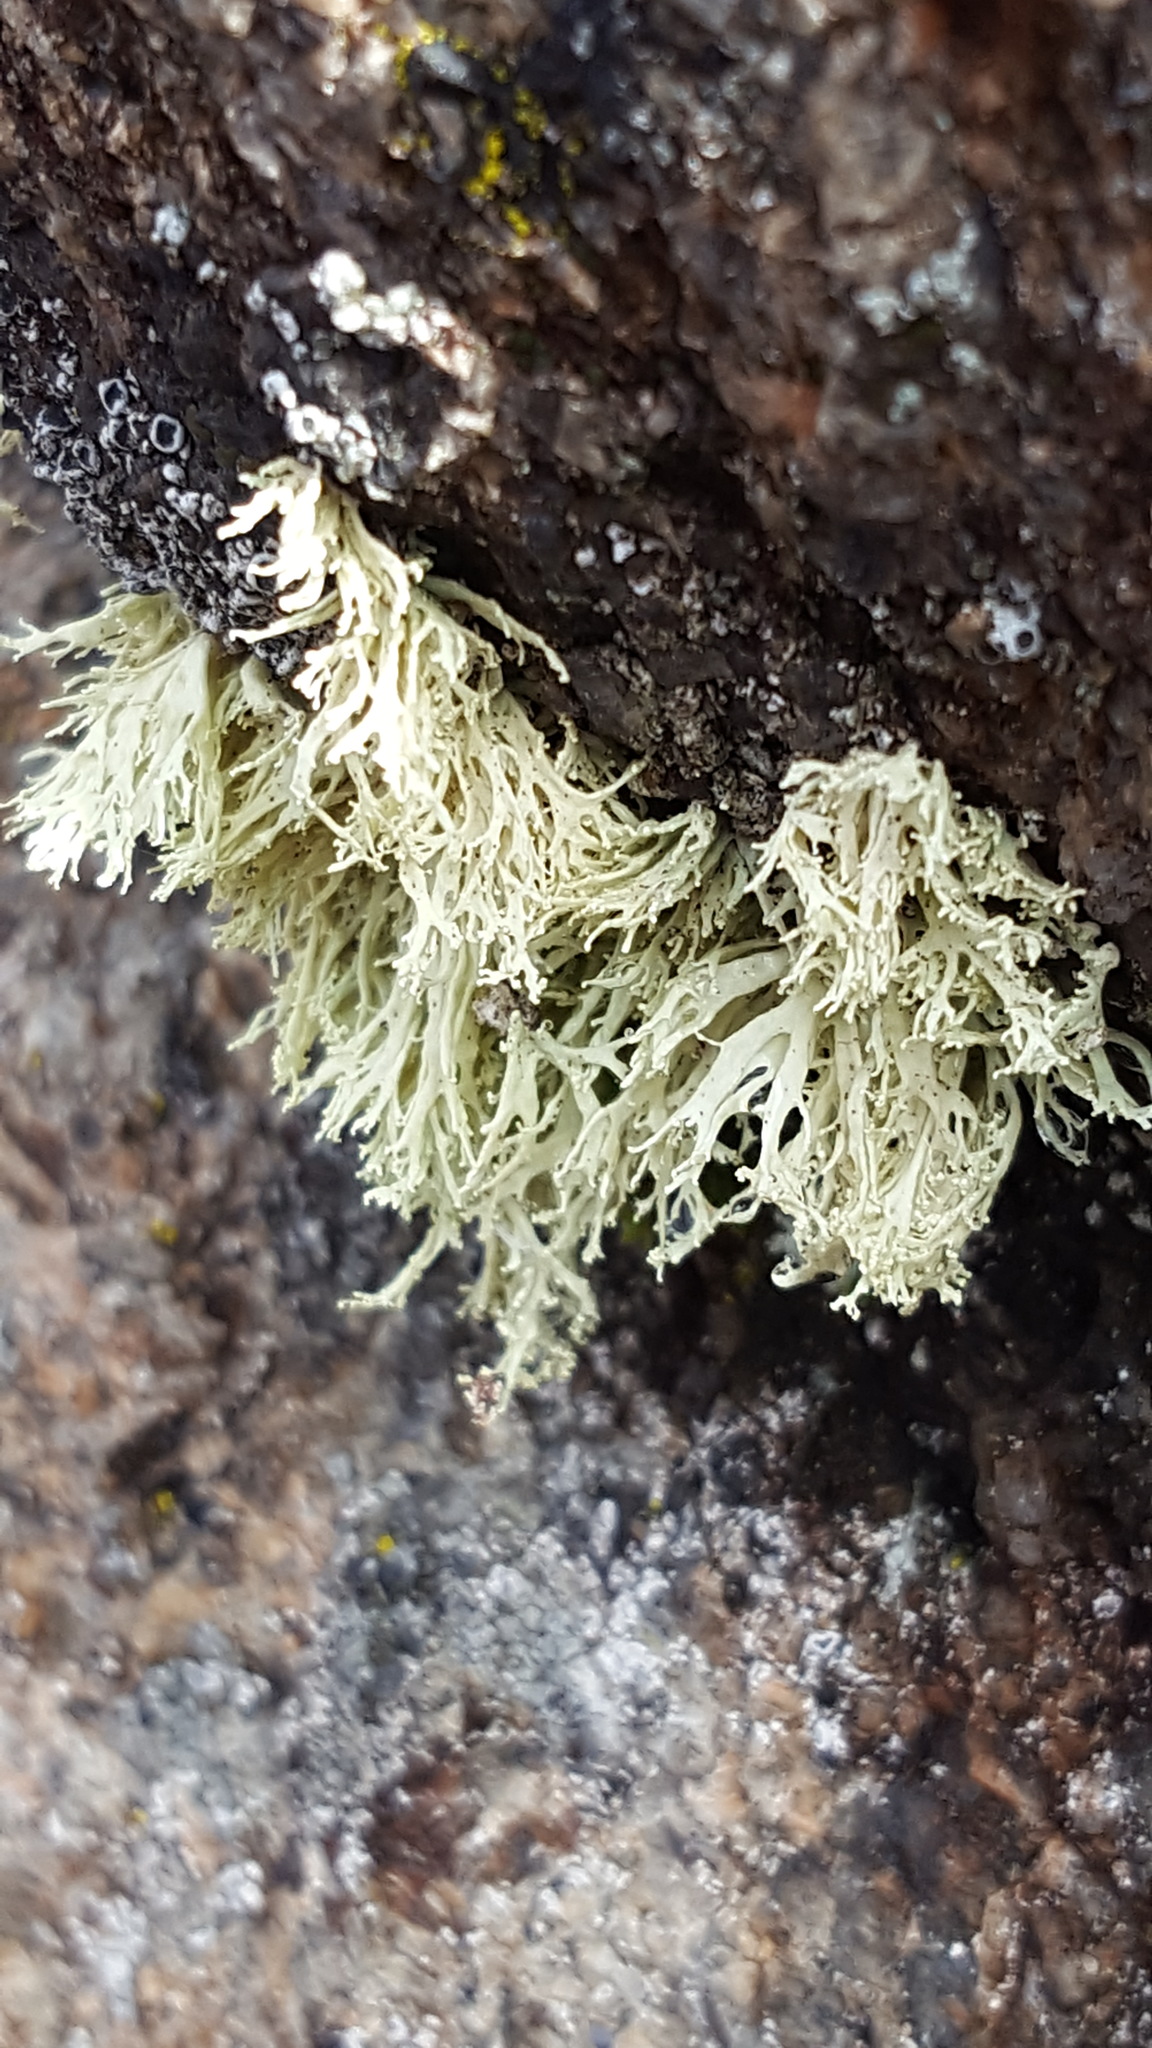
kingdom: Fungi
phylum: Ascomycota
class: Lecanoromycetes
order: Lecanorales
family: Ramalinaceae
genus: Ramalina
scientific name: Ramalina intermedia
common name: Rock bushy lichen
